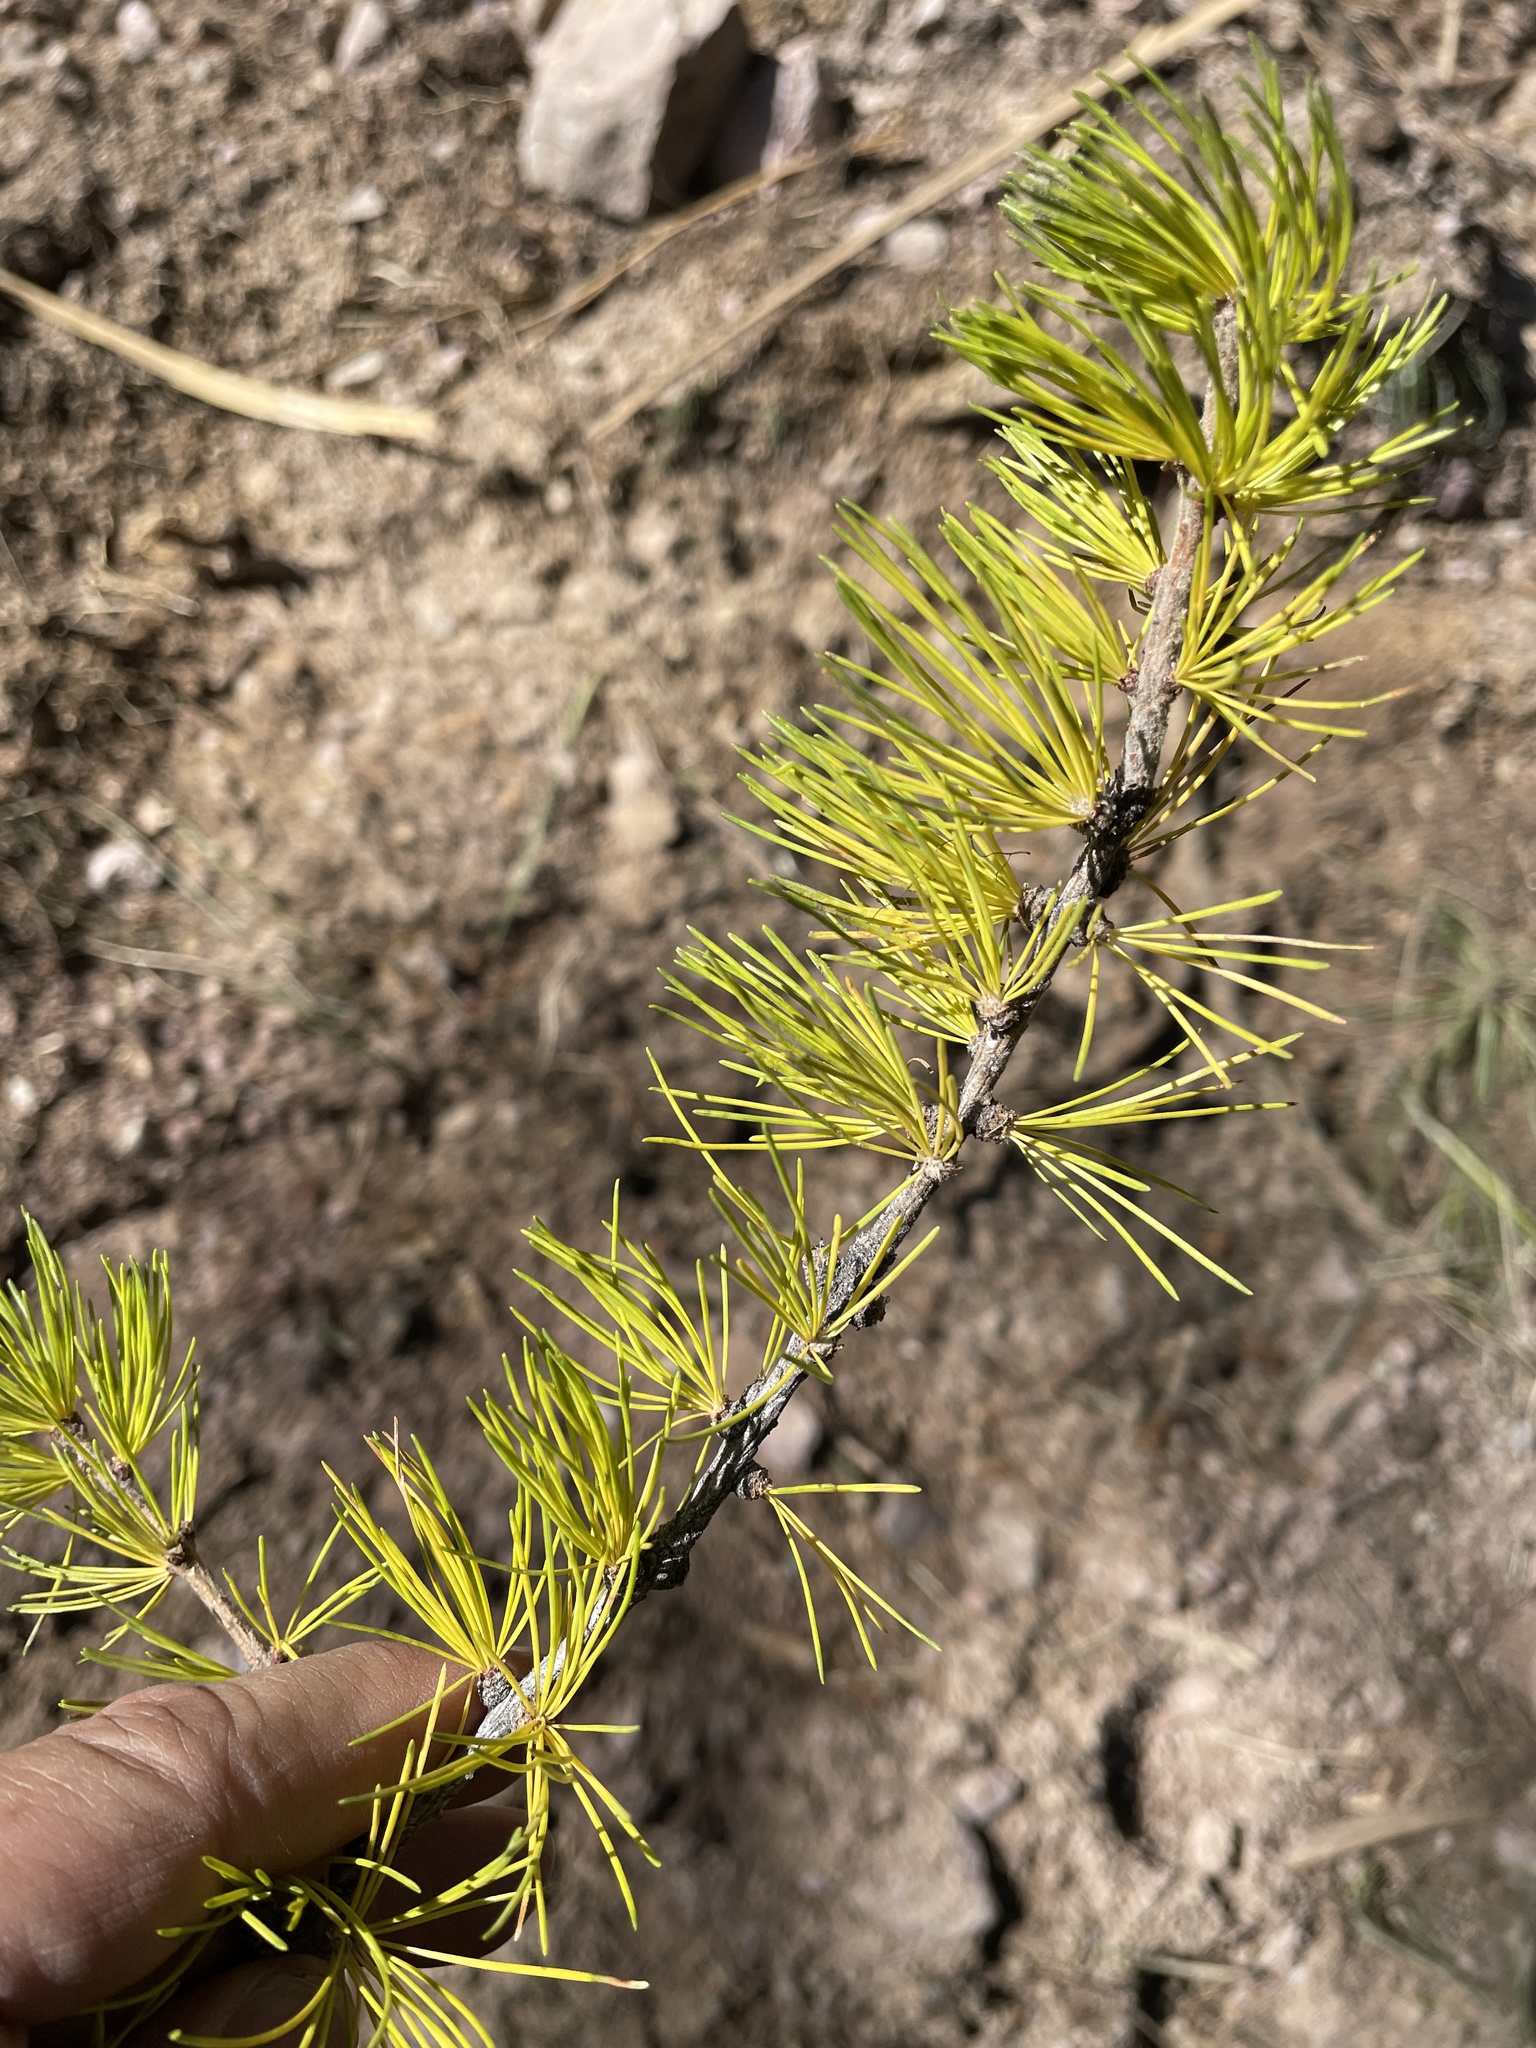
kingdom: Plantae
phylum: Tracheophyta
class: Pinopsida
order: Pinales
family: Pinaceae
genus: Larix
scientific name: Larix occidentalis
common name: Western larch
